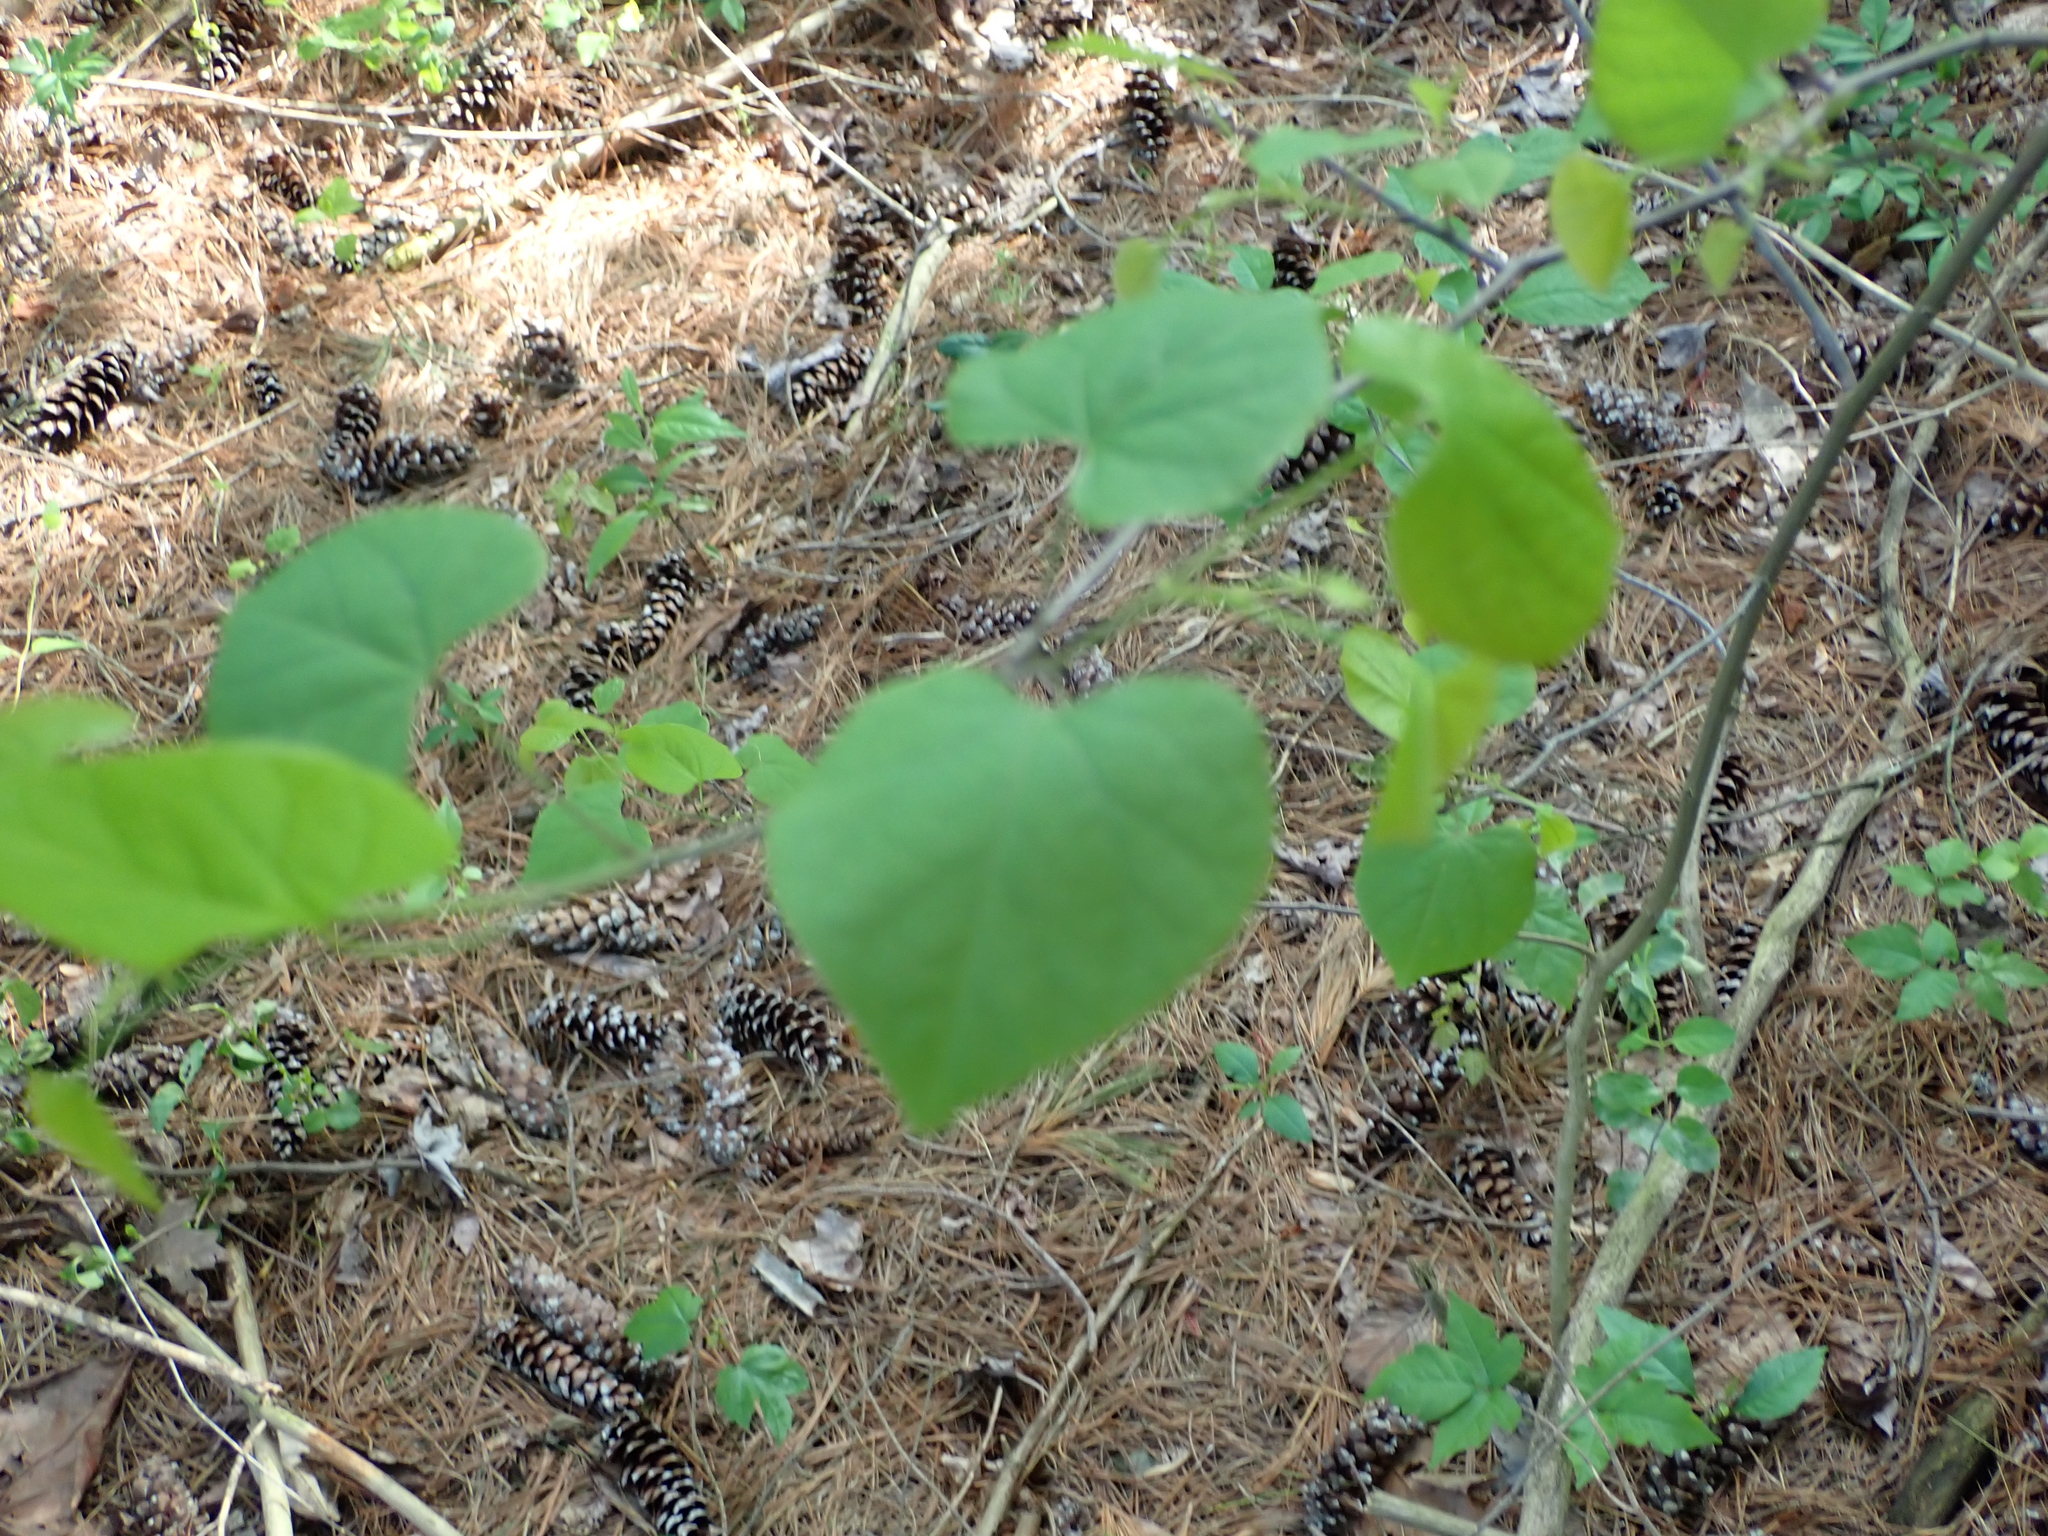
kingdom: Plantae
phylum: Tracheophyta
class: Magnoliopsida
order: Fabales
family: Fabaceae
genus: Cercis
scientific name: Cercis canadensis
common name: Eastern redbud
